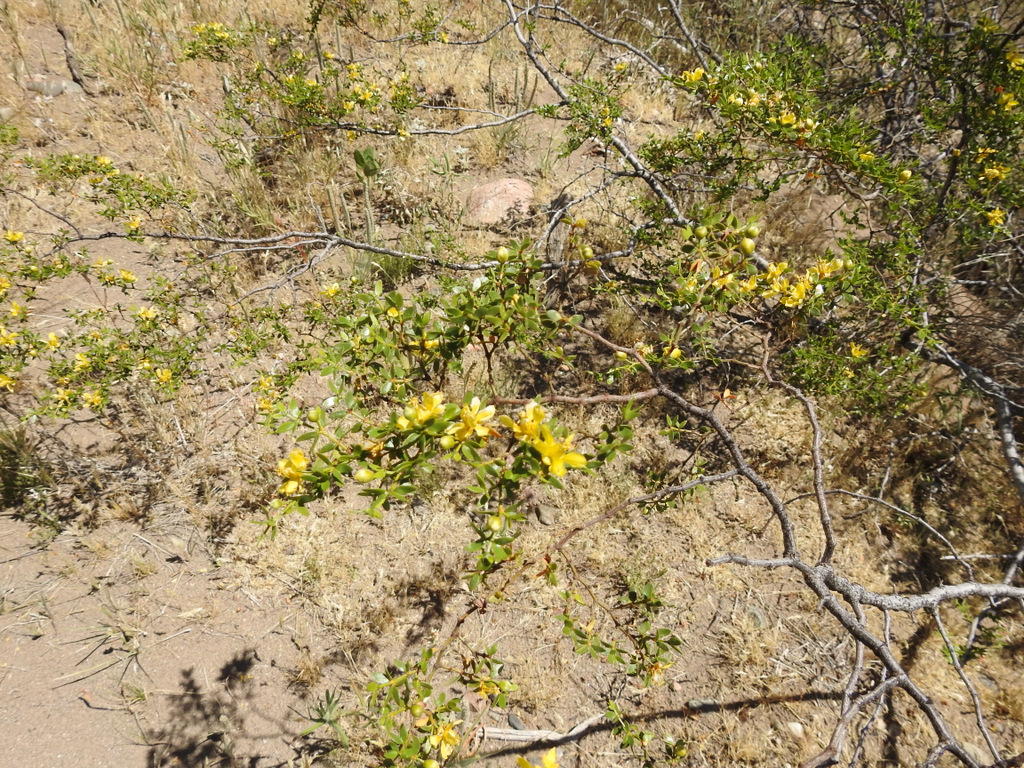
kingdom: Plantae
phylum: Tracheophyta
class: Magnoliopsida
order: Zygophyllales
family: Zygophyllaceae
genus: Larrea
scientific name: Larrea divaricata
